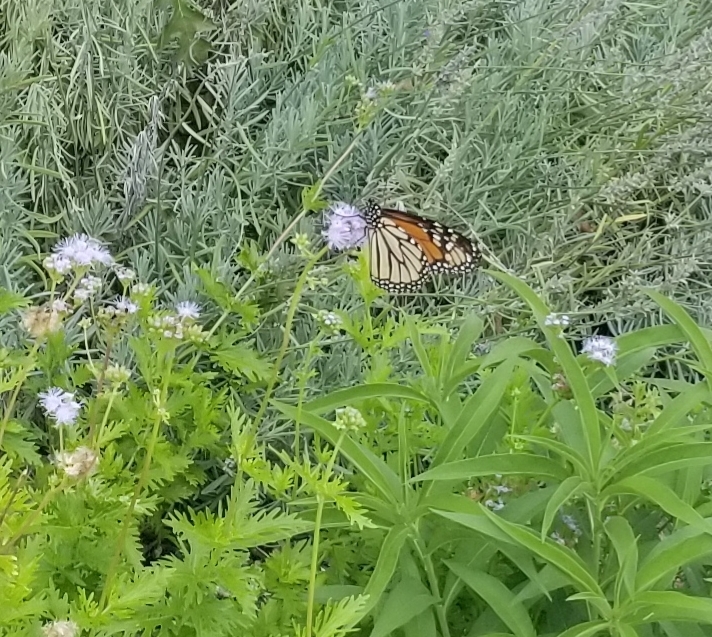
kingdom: Animalia
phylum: Arthropoda
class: Insecta
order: Lepidoptera
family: Nymphalidae
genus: Danaus
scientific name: Danaus plexippus
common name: Monarch
